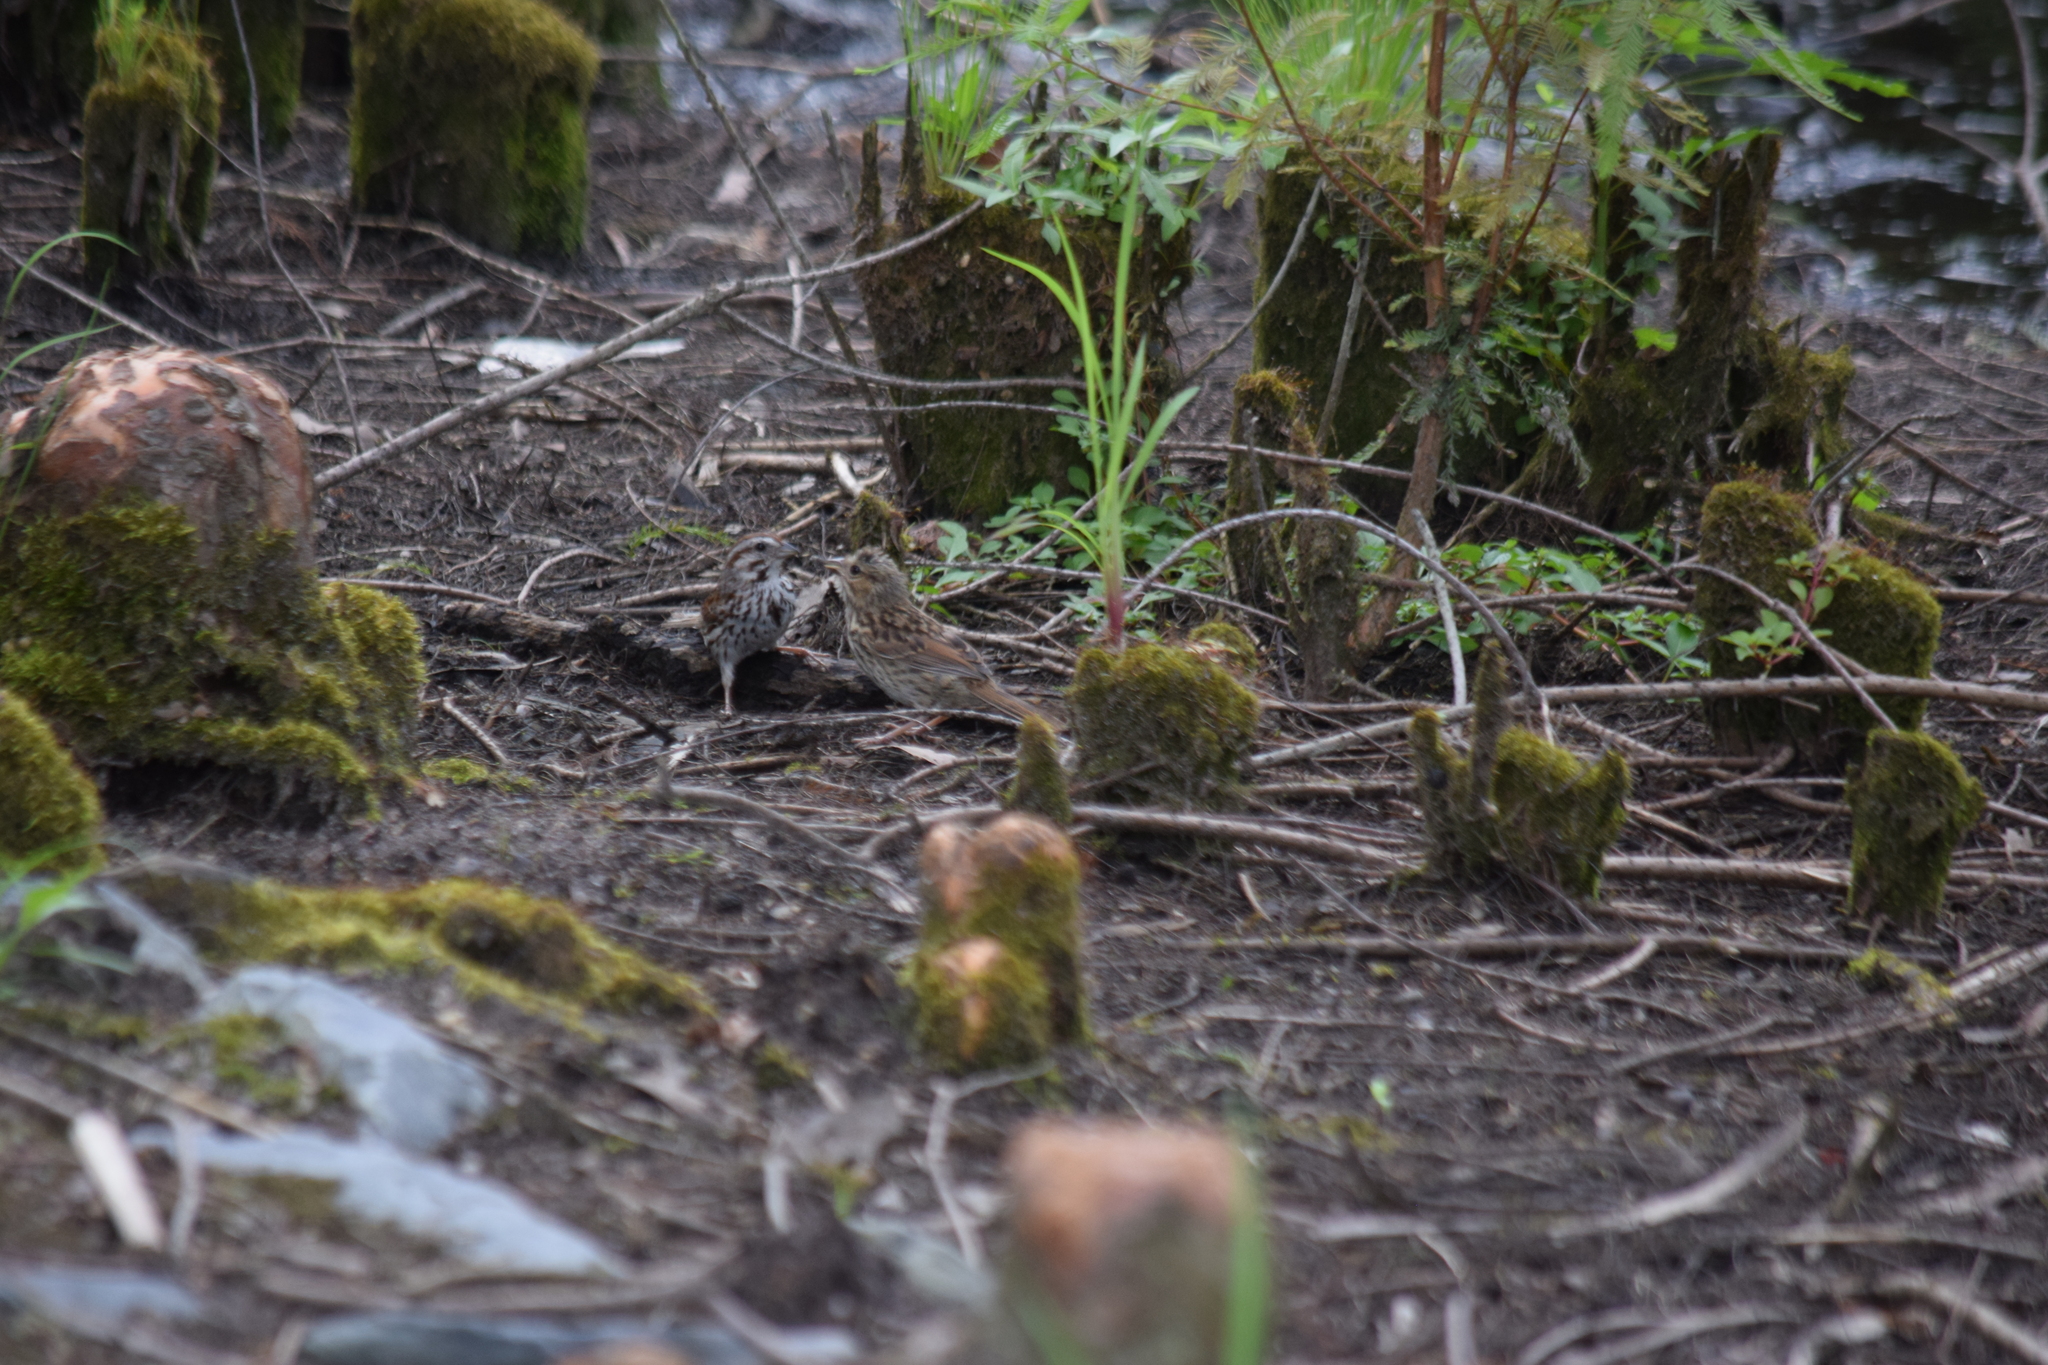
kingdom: Animalia
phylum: Chordata
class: Aves
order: Passeriformes
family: Passerellidae
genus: Melospiza
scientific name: Melospiza melodia
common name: Song sparrow
